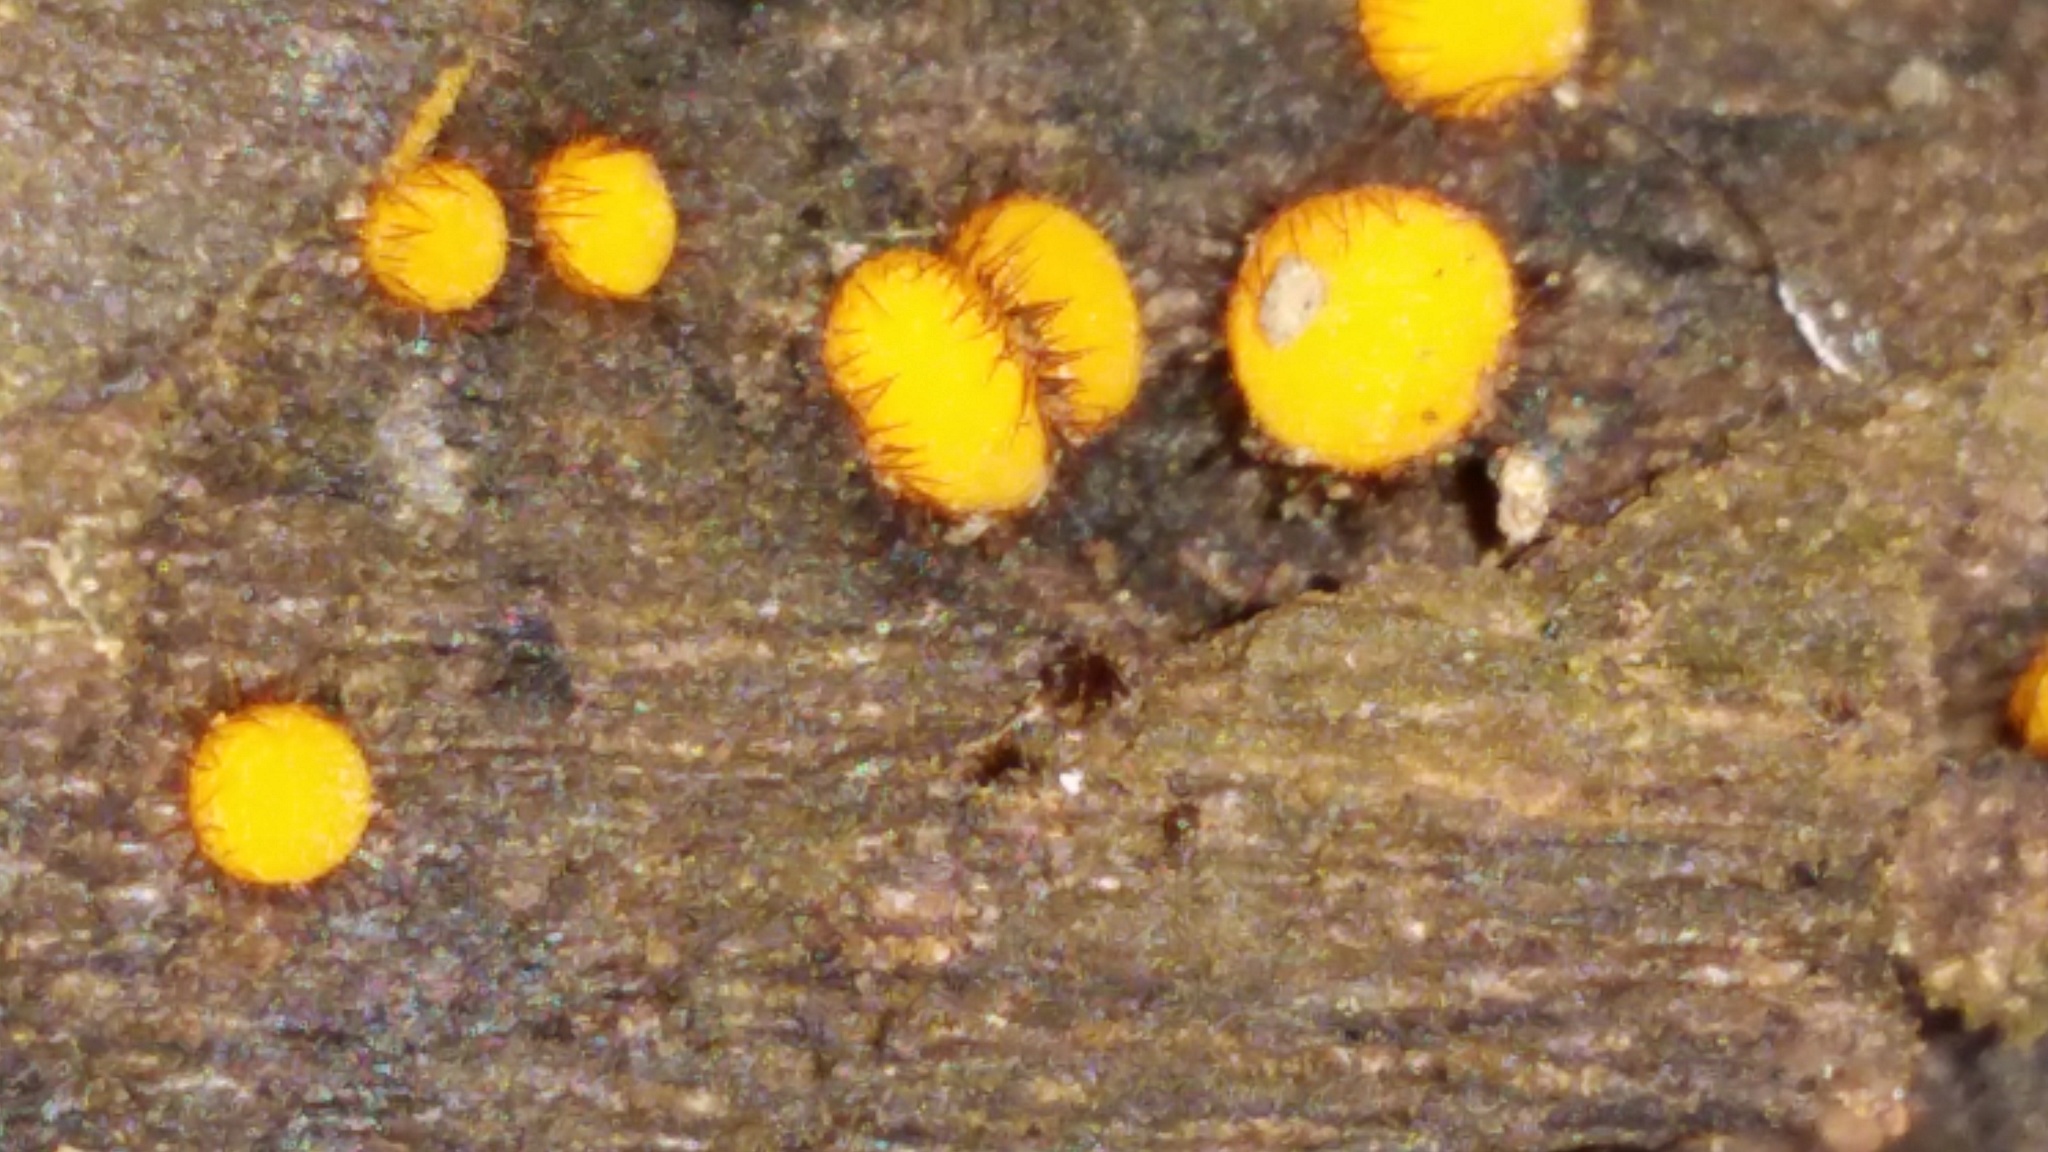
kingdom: Fungi
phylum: Ascomycota
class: Pezizomycetes
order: Pezizales
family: Pyronemataceae
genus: Scutellinia
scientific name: Scutellinia setosa
